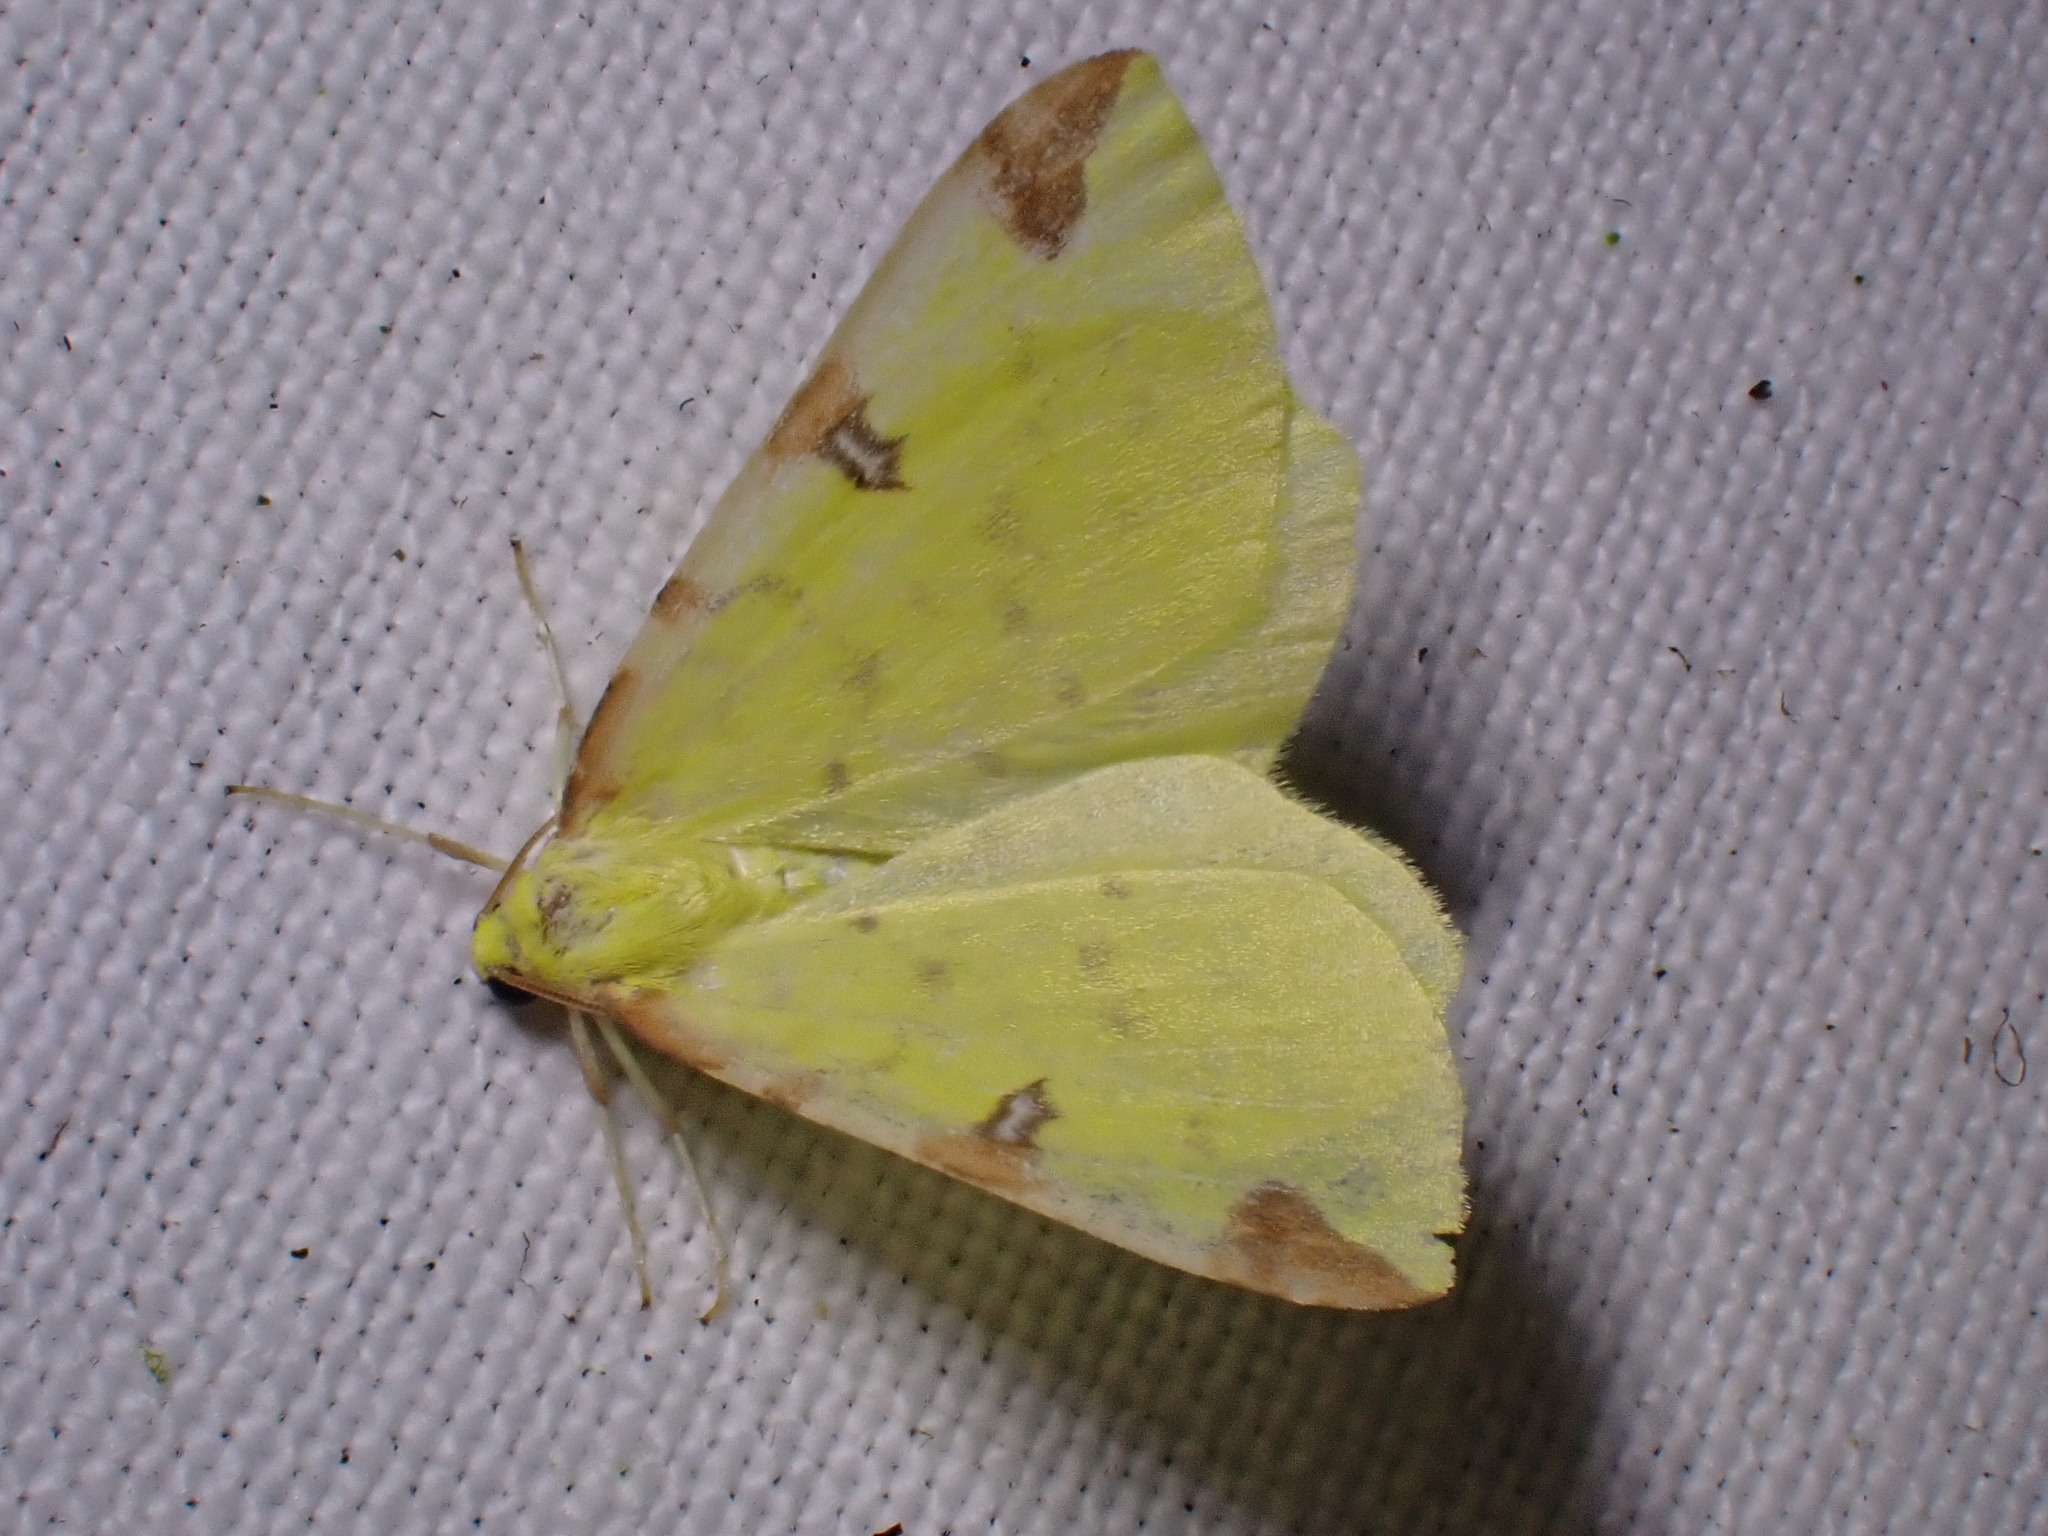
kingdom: Animalia
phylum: Arthropoda
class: Insecta
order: Lepidoptera
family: Geometridae
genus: Opisthograptis
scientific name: Opisthograptis luteolata
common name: Brimstone moth
